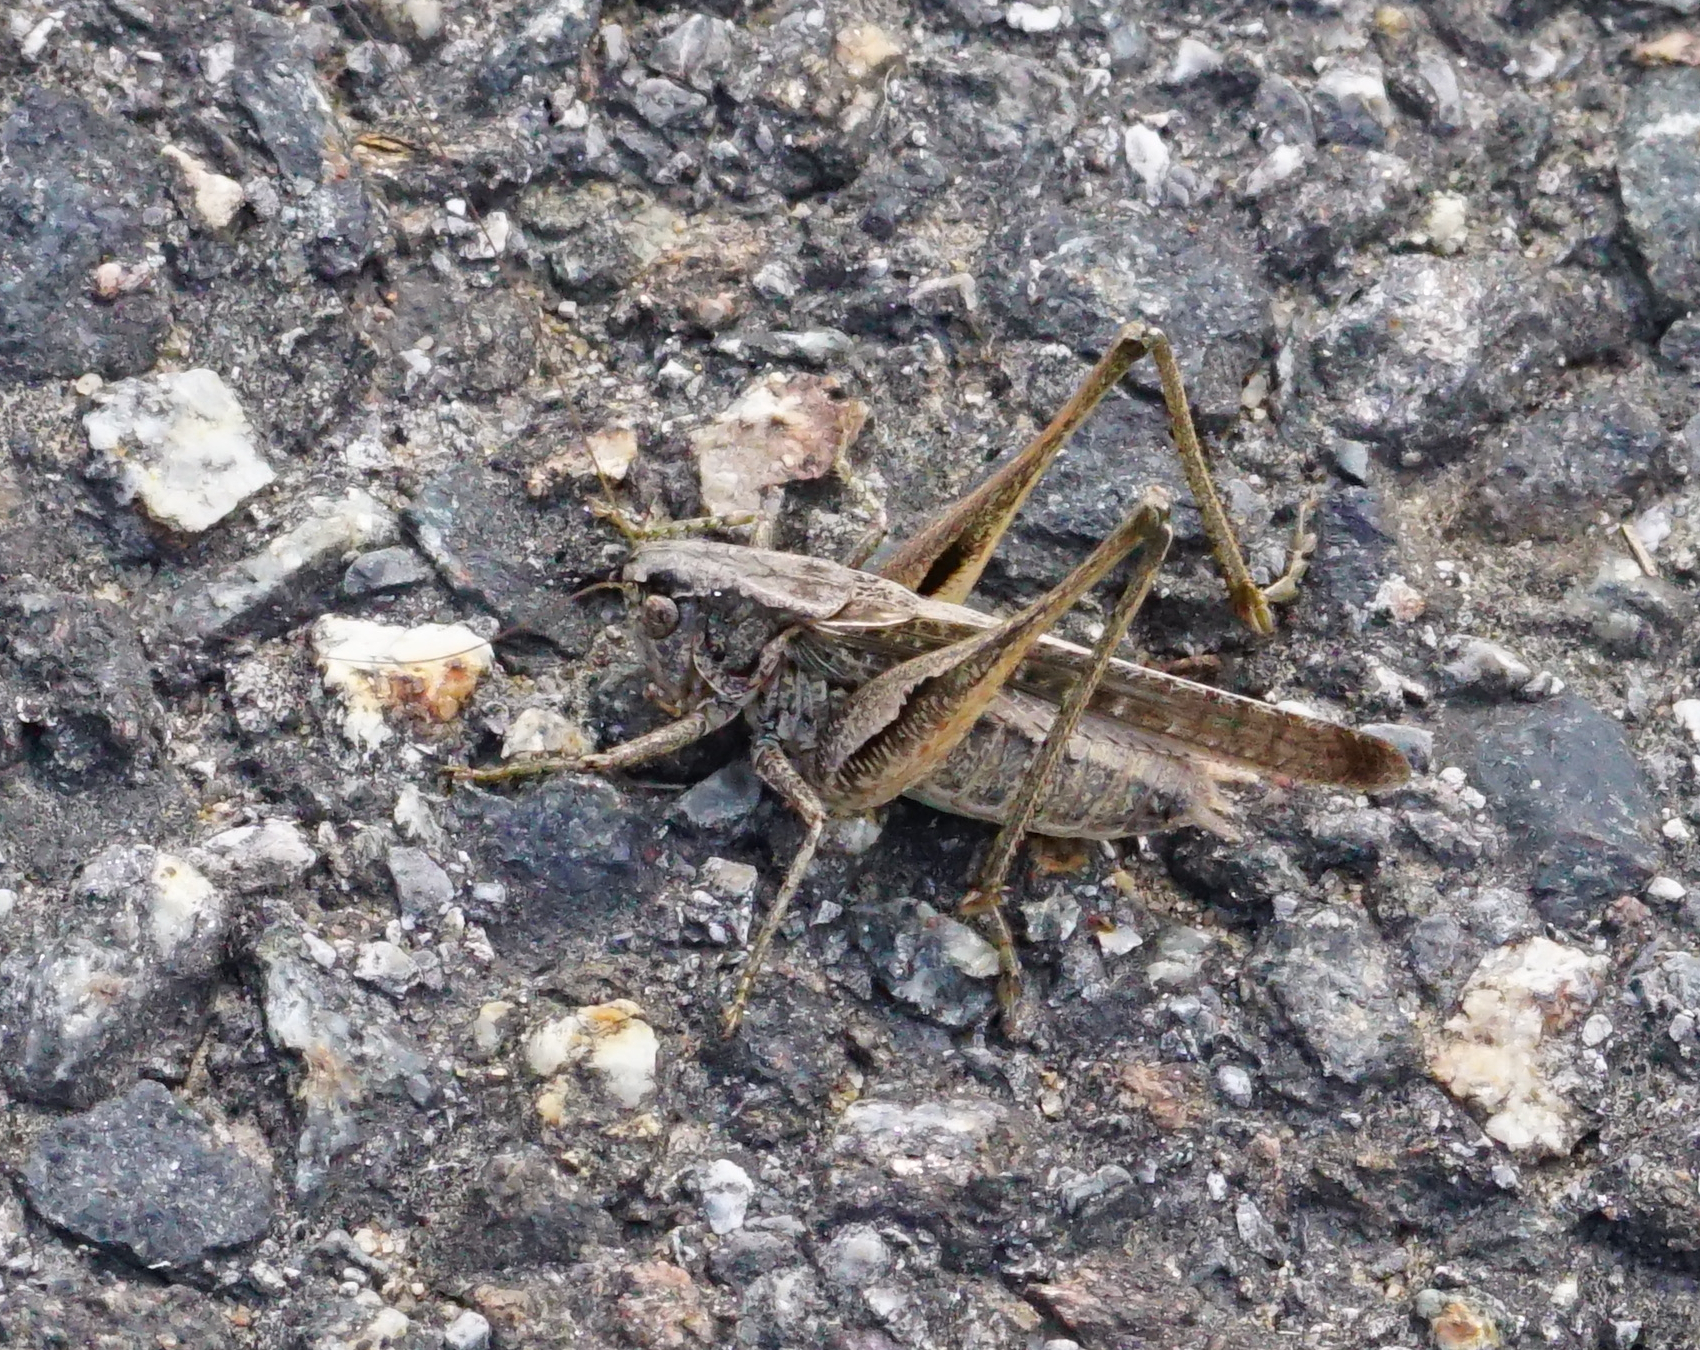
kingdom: Animalia
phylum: Arthropoda
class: Insecta
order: Orthoptera
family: Tettigoniidae
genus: Platycleis
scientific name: Platycleis grisea
